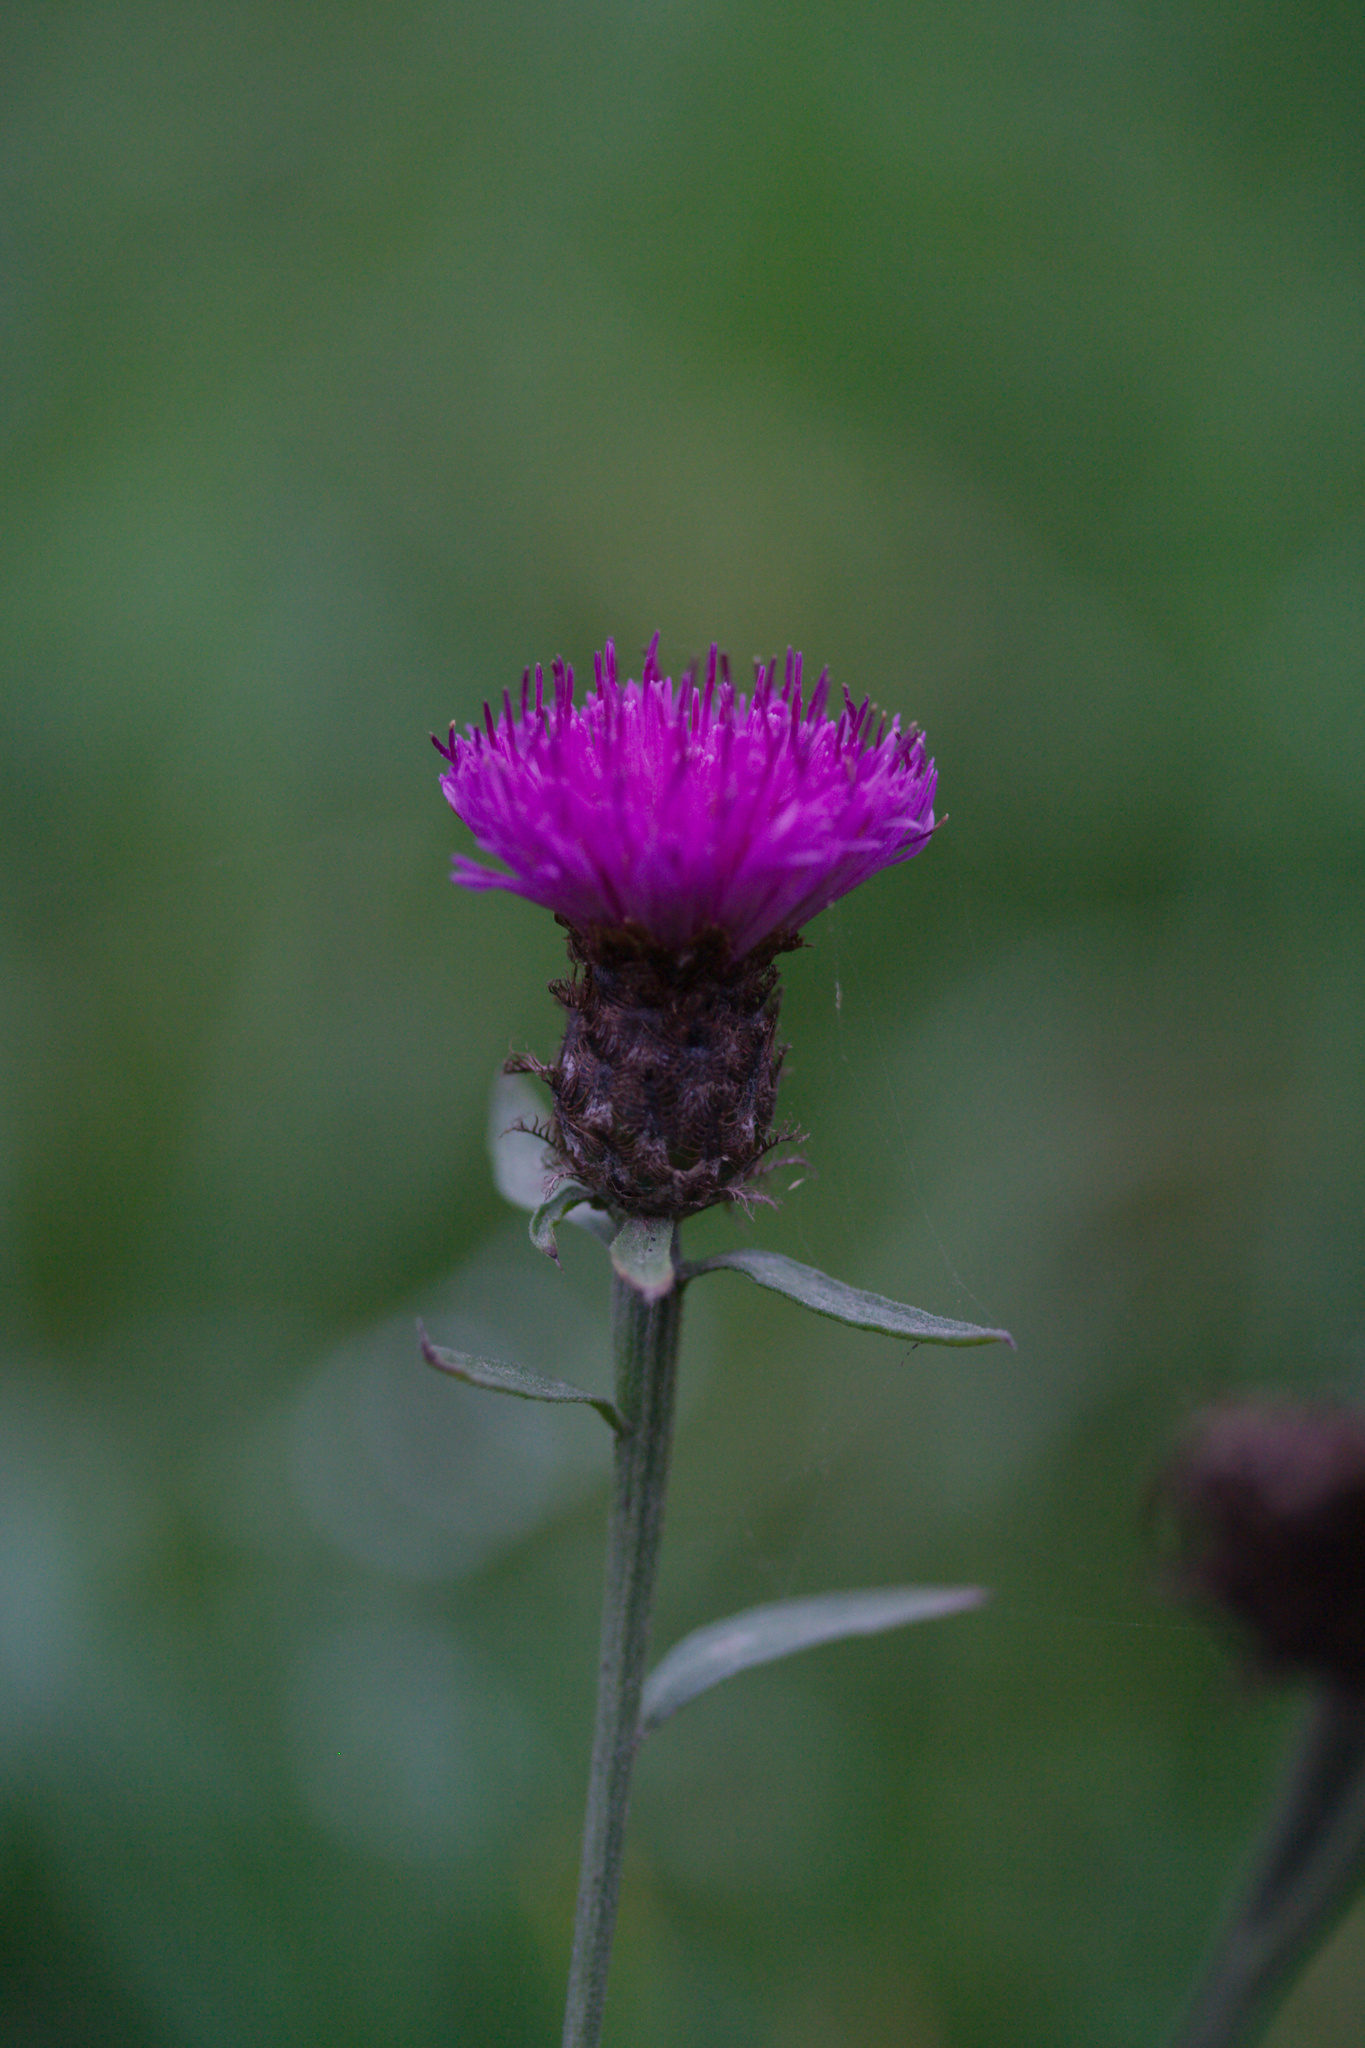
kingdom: Plantae
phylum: Tracheophyta
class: Magnoliopsida
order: Asterales
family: Asteraceae
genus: Centaurea
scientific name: Centaurea nigra
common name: Lesser knapweed
